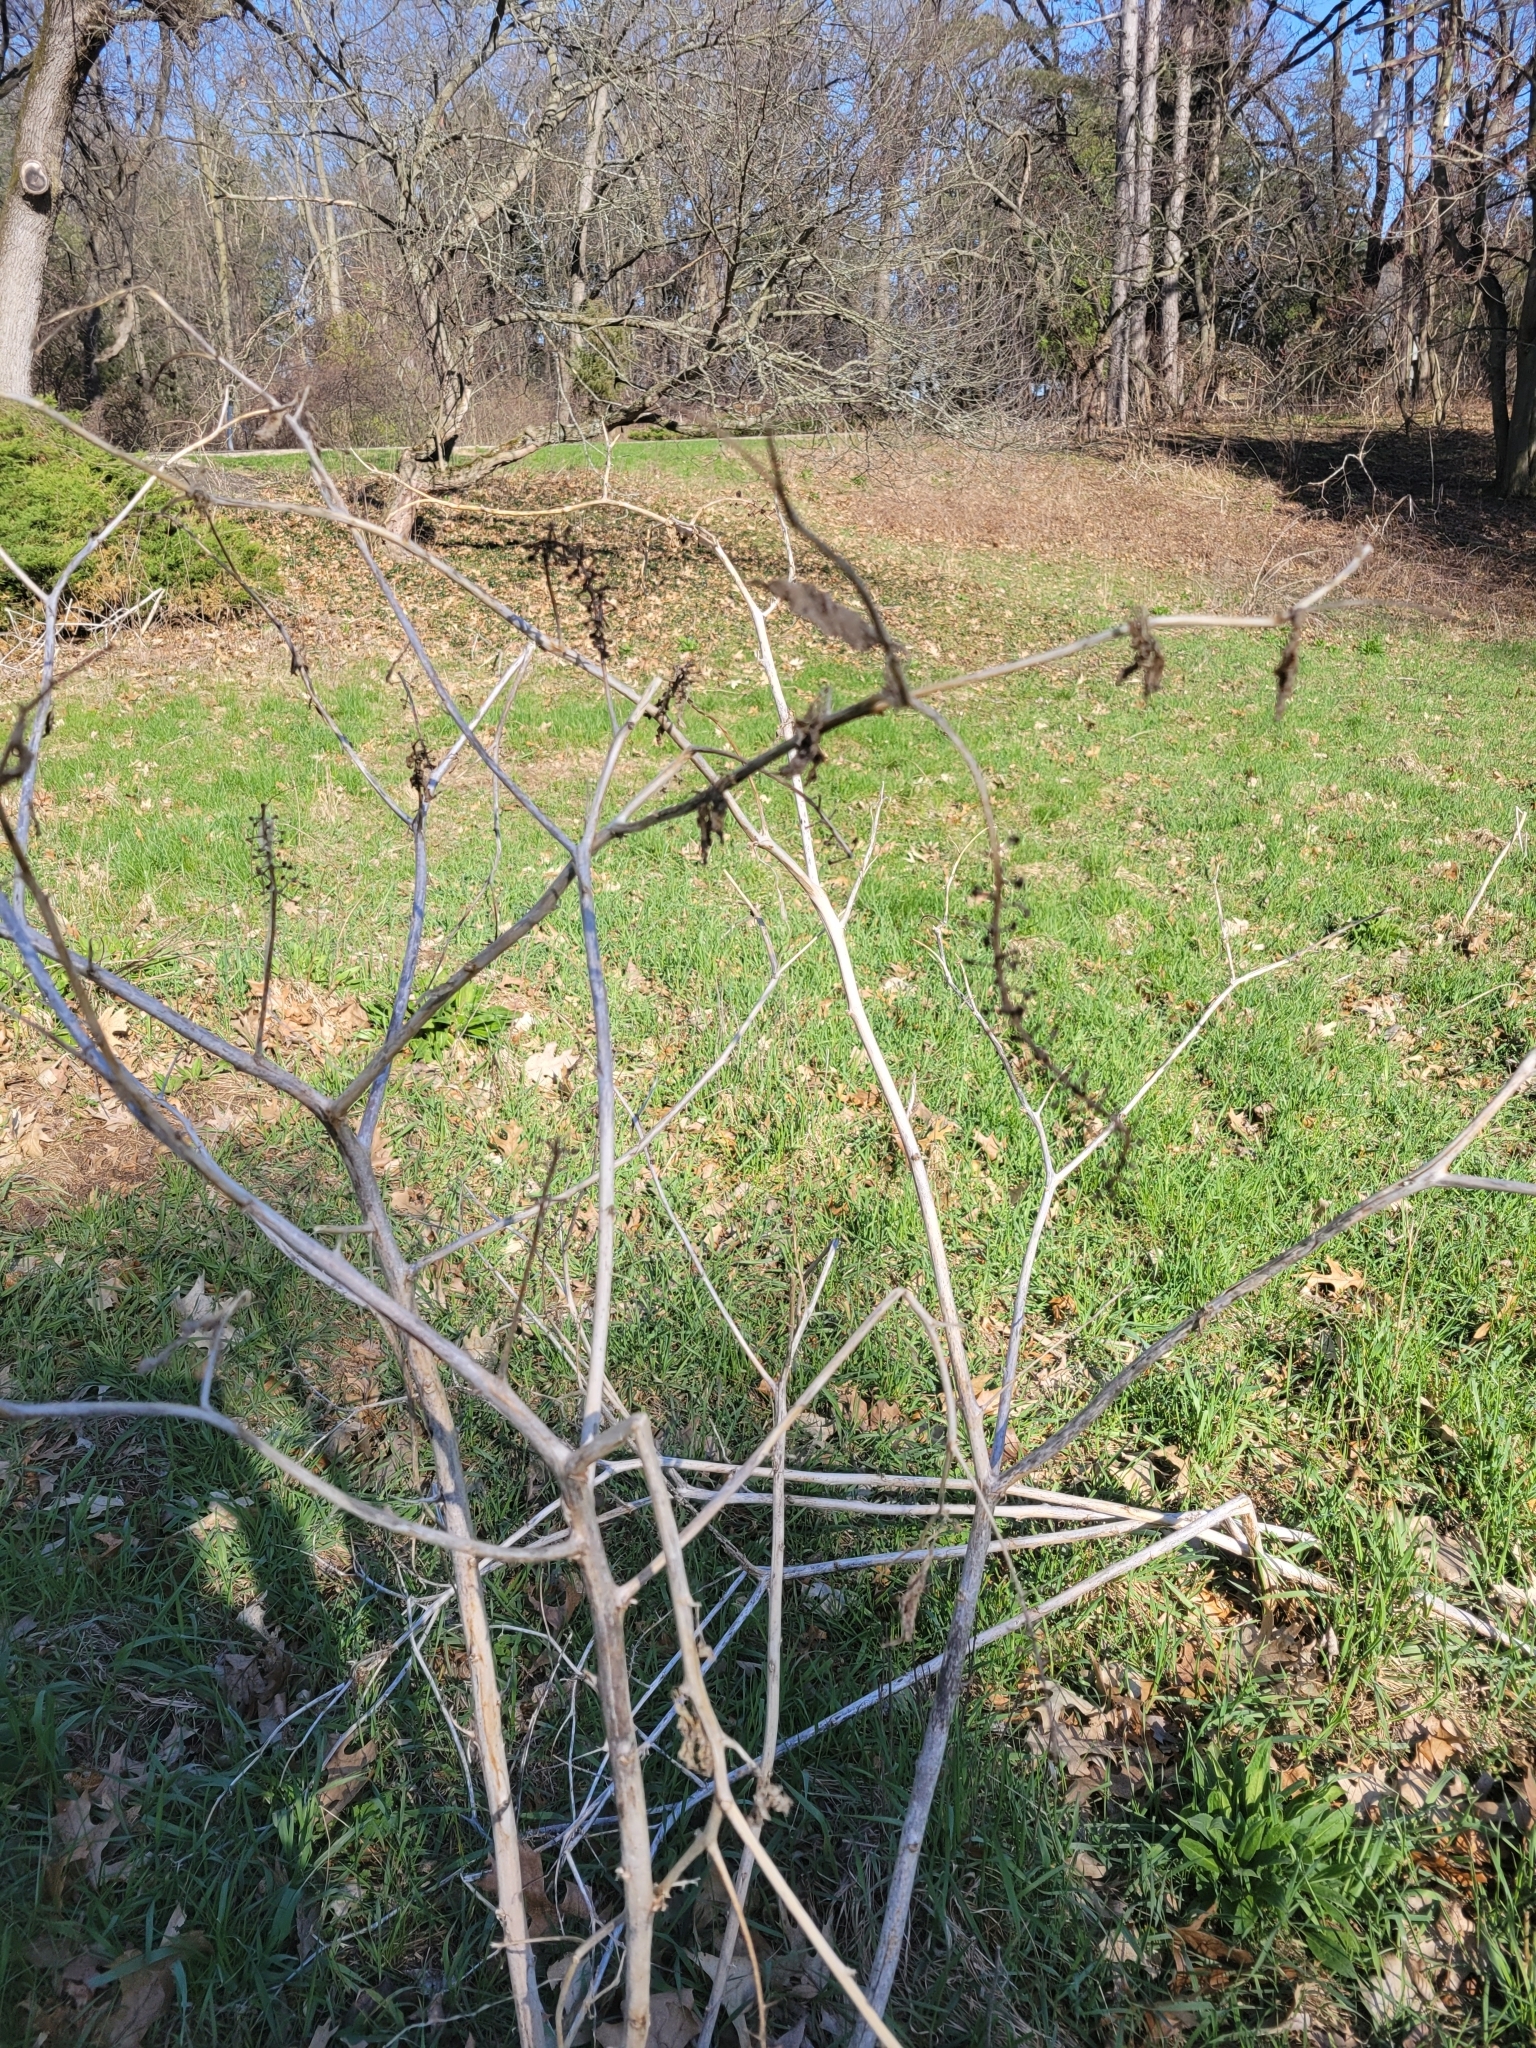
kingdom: Plantae
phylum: Tracheophyta
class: Magnoliopsida
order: Caryophyllales
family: Phytolaccaceae
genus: Phytolacca
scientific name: Phytolacca americana
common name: American pokeweed
